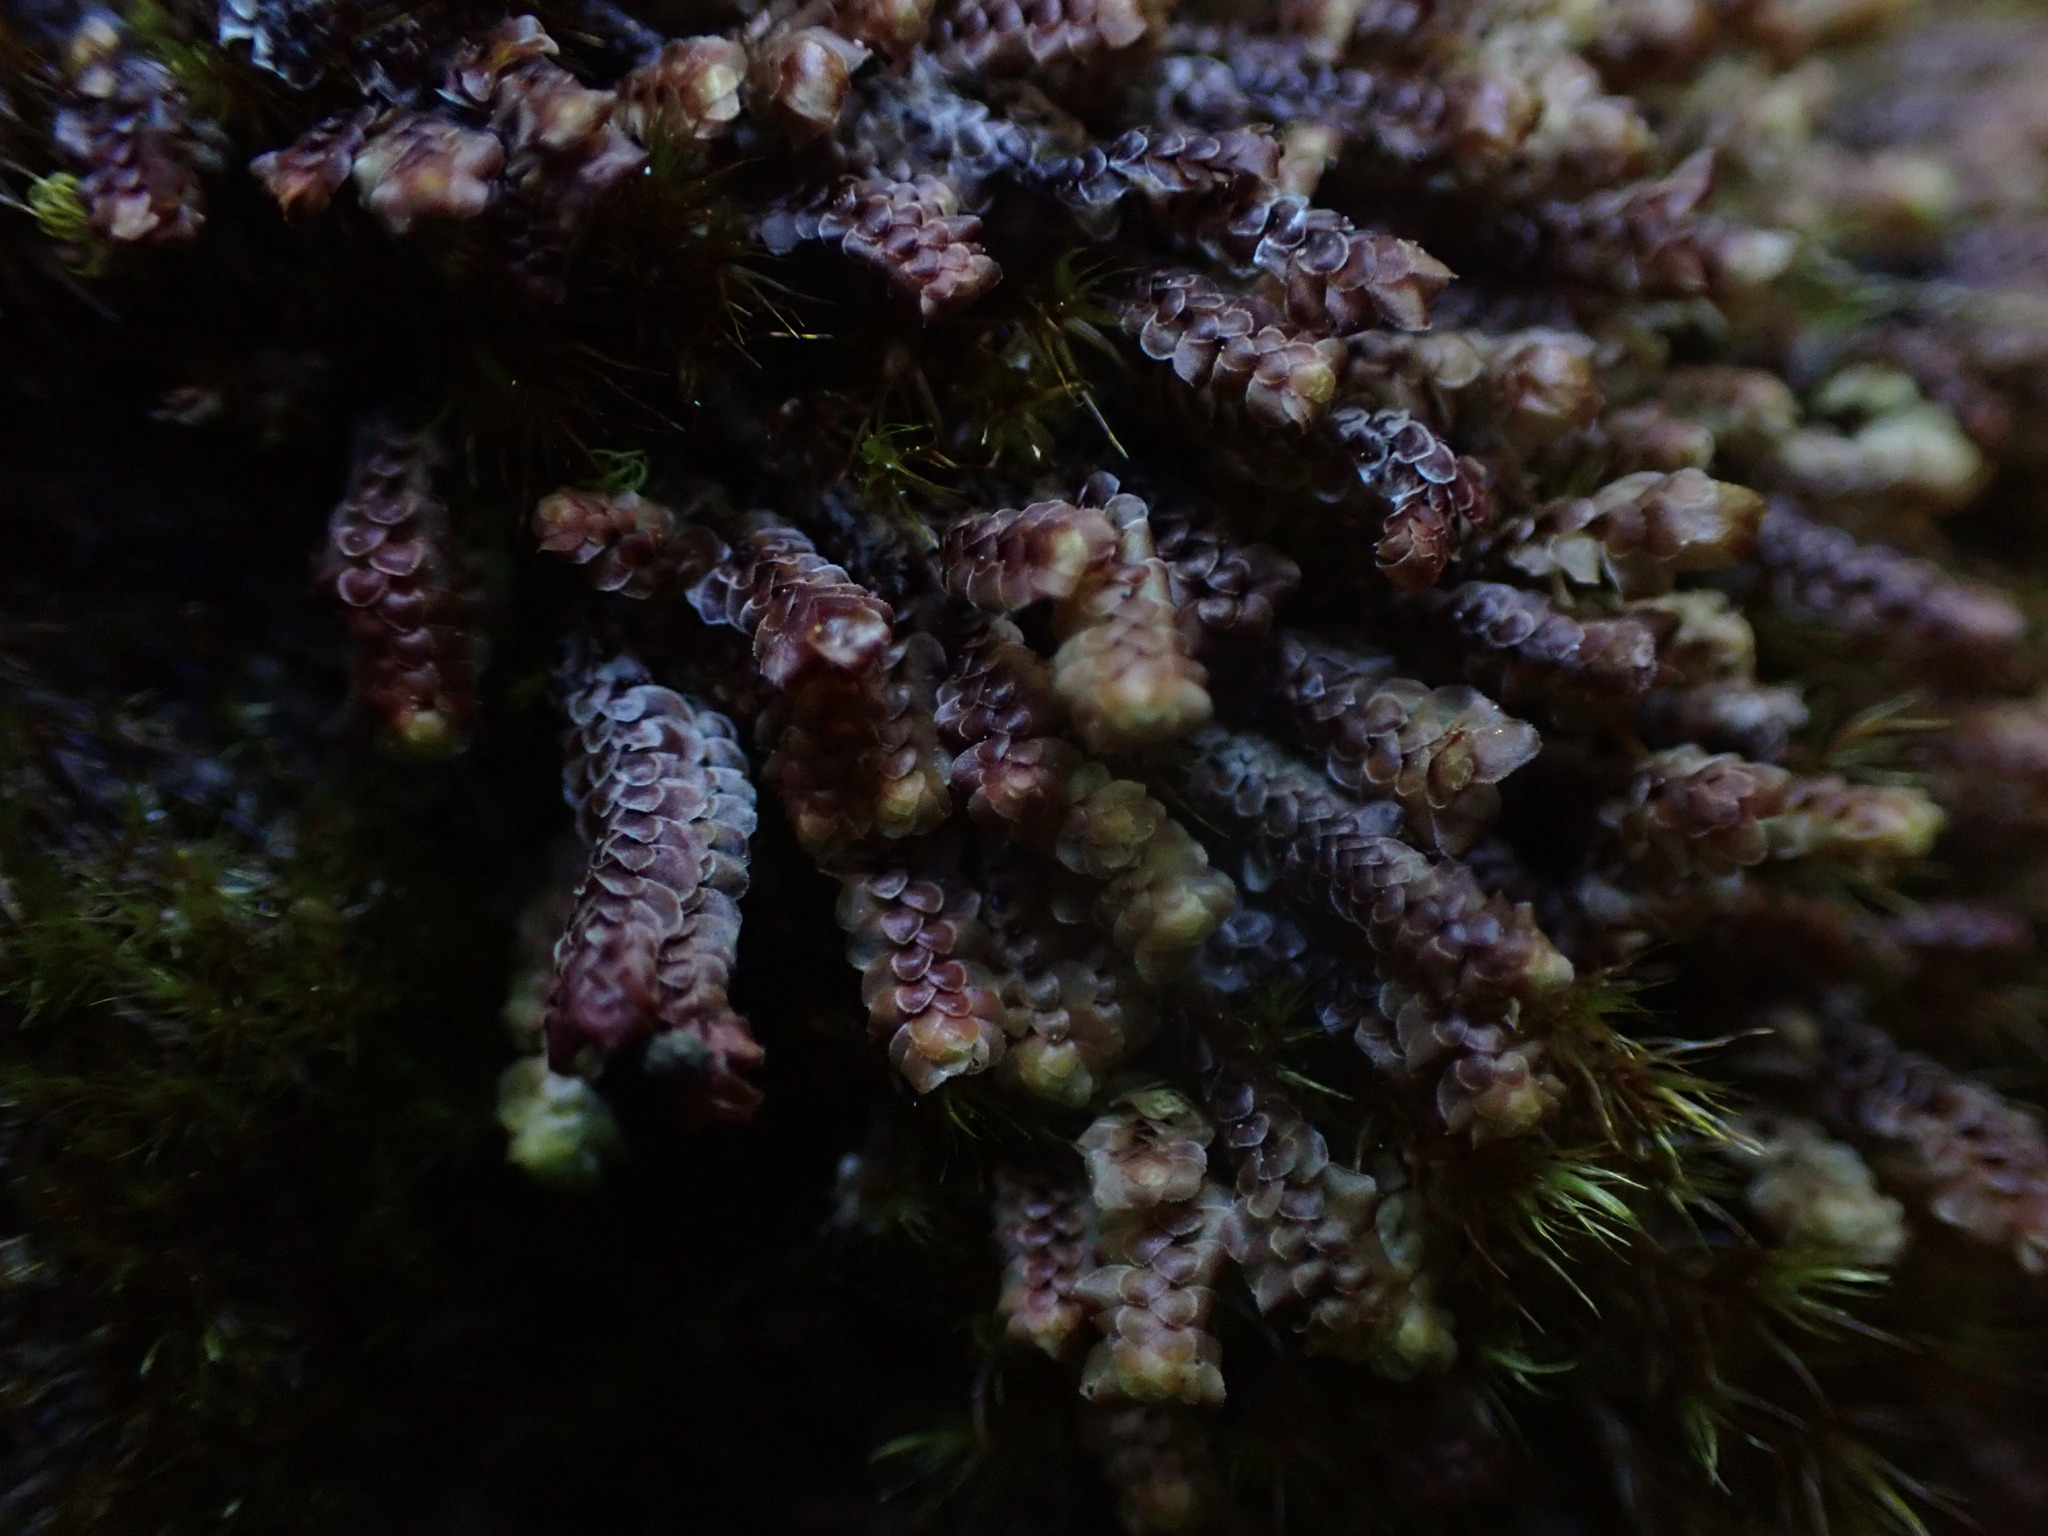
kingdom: Plantae
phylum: Marchantiophyta
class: Jungermanniopsida
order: Jungermanniales
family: Scapaniaceae
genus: Scapania
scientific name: Scapania americana
